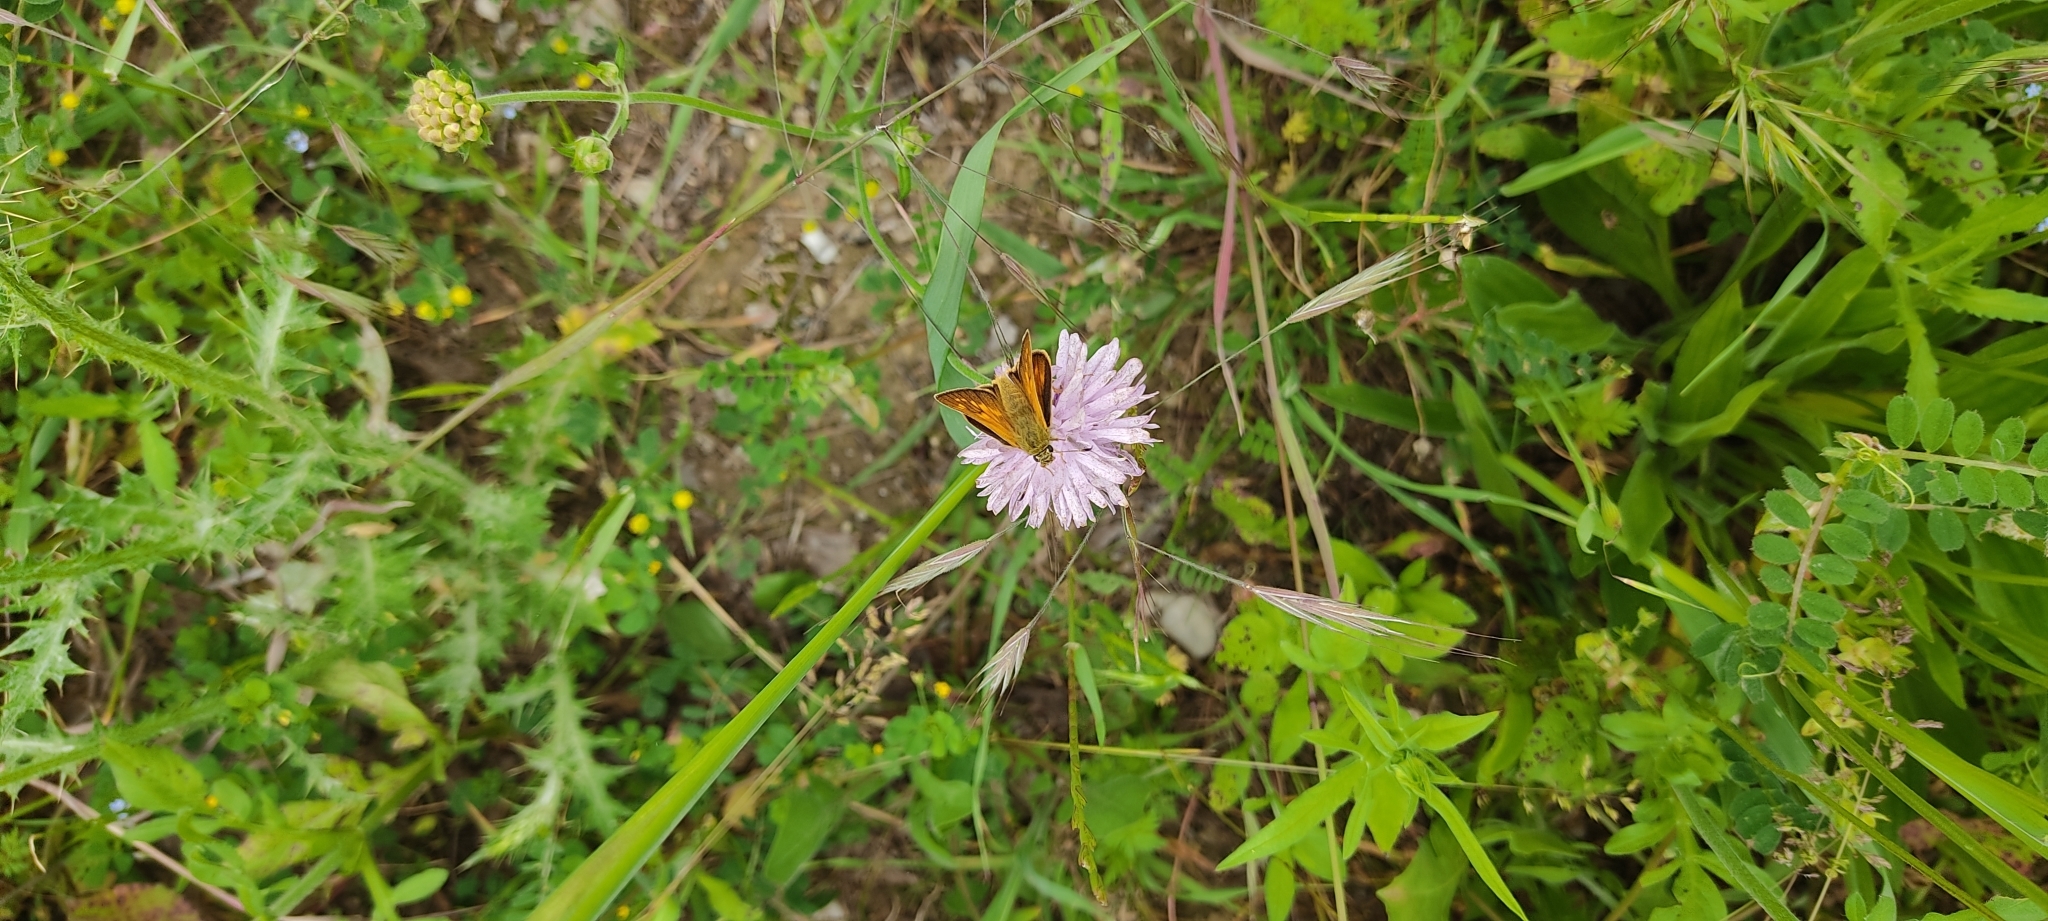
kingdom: Animalia
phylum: Arthropoda
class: Insecta
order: Lepidoptera
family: Hesperiidae
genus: Ochlodes
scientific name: Ochlodes venata
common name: Large skipper
